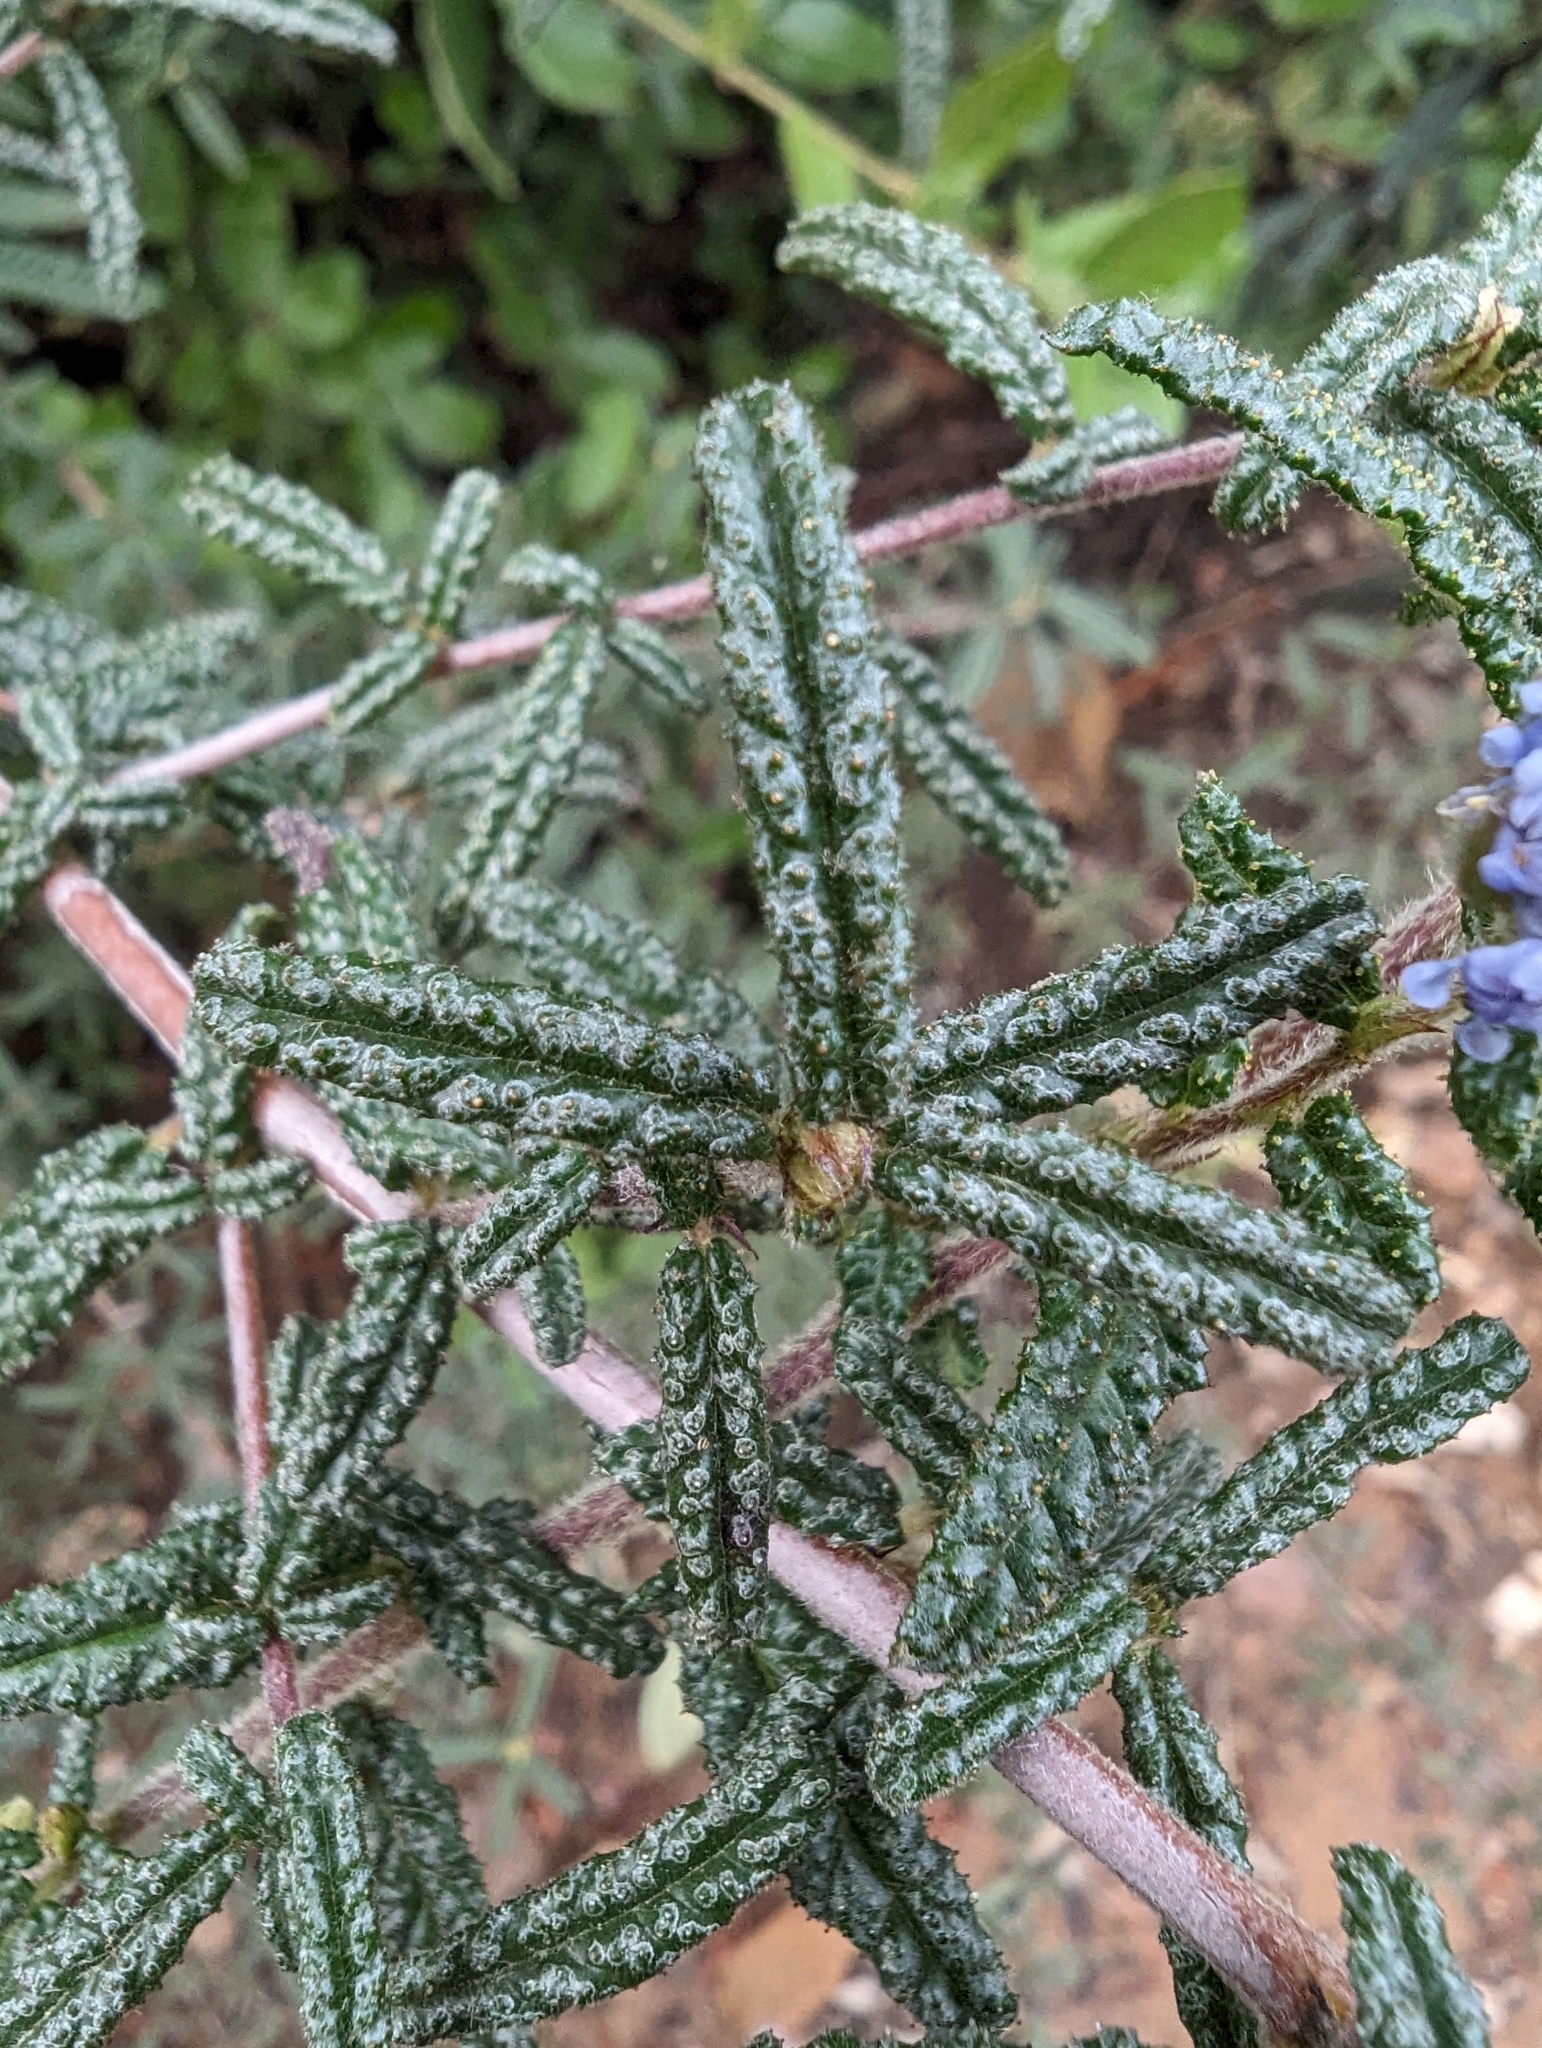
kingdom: Plantae
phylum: Tracheophyta
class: Magnoliopsida
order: Rosales
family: Rhamnaceae
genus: Ceanothus
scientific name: Ceanothus papillosus
